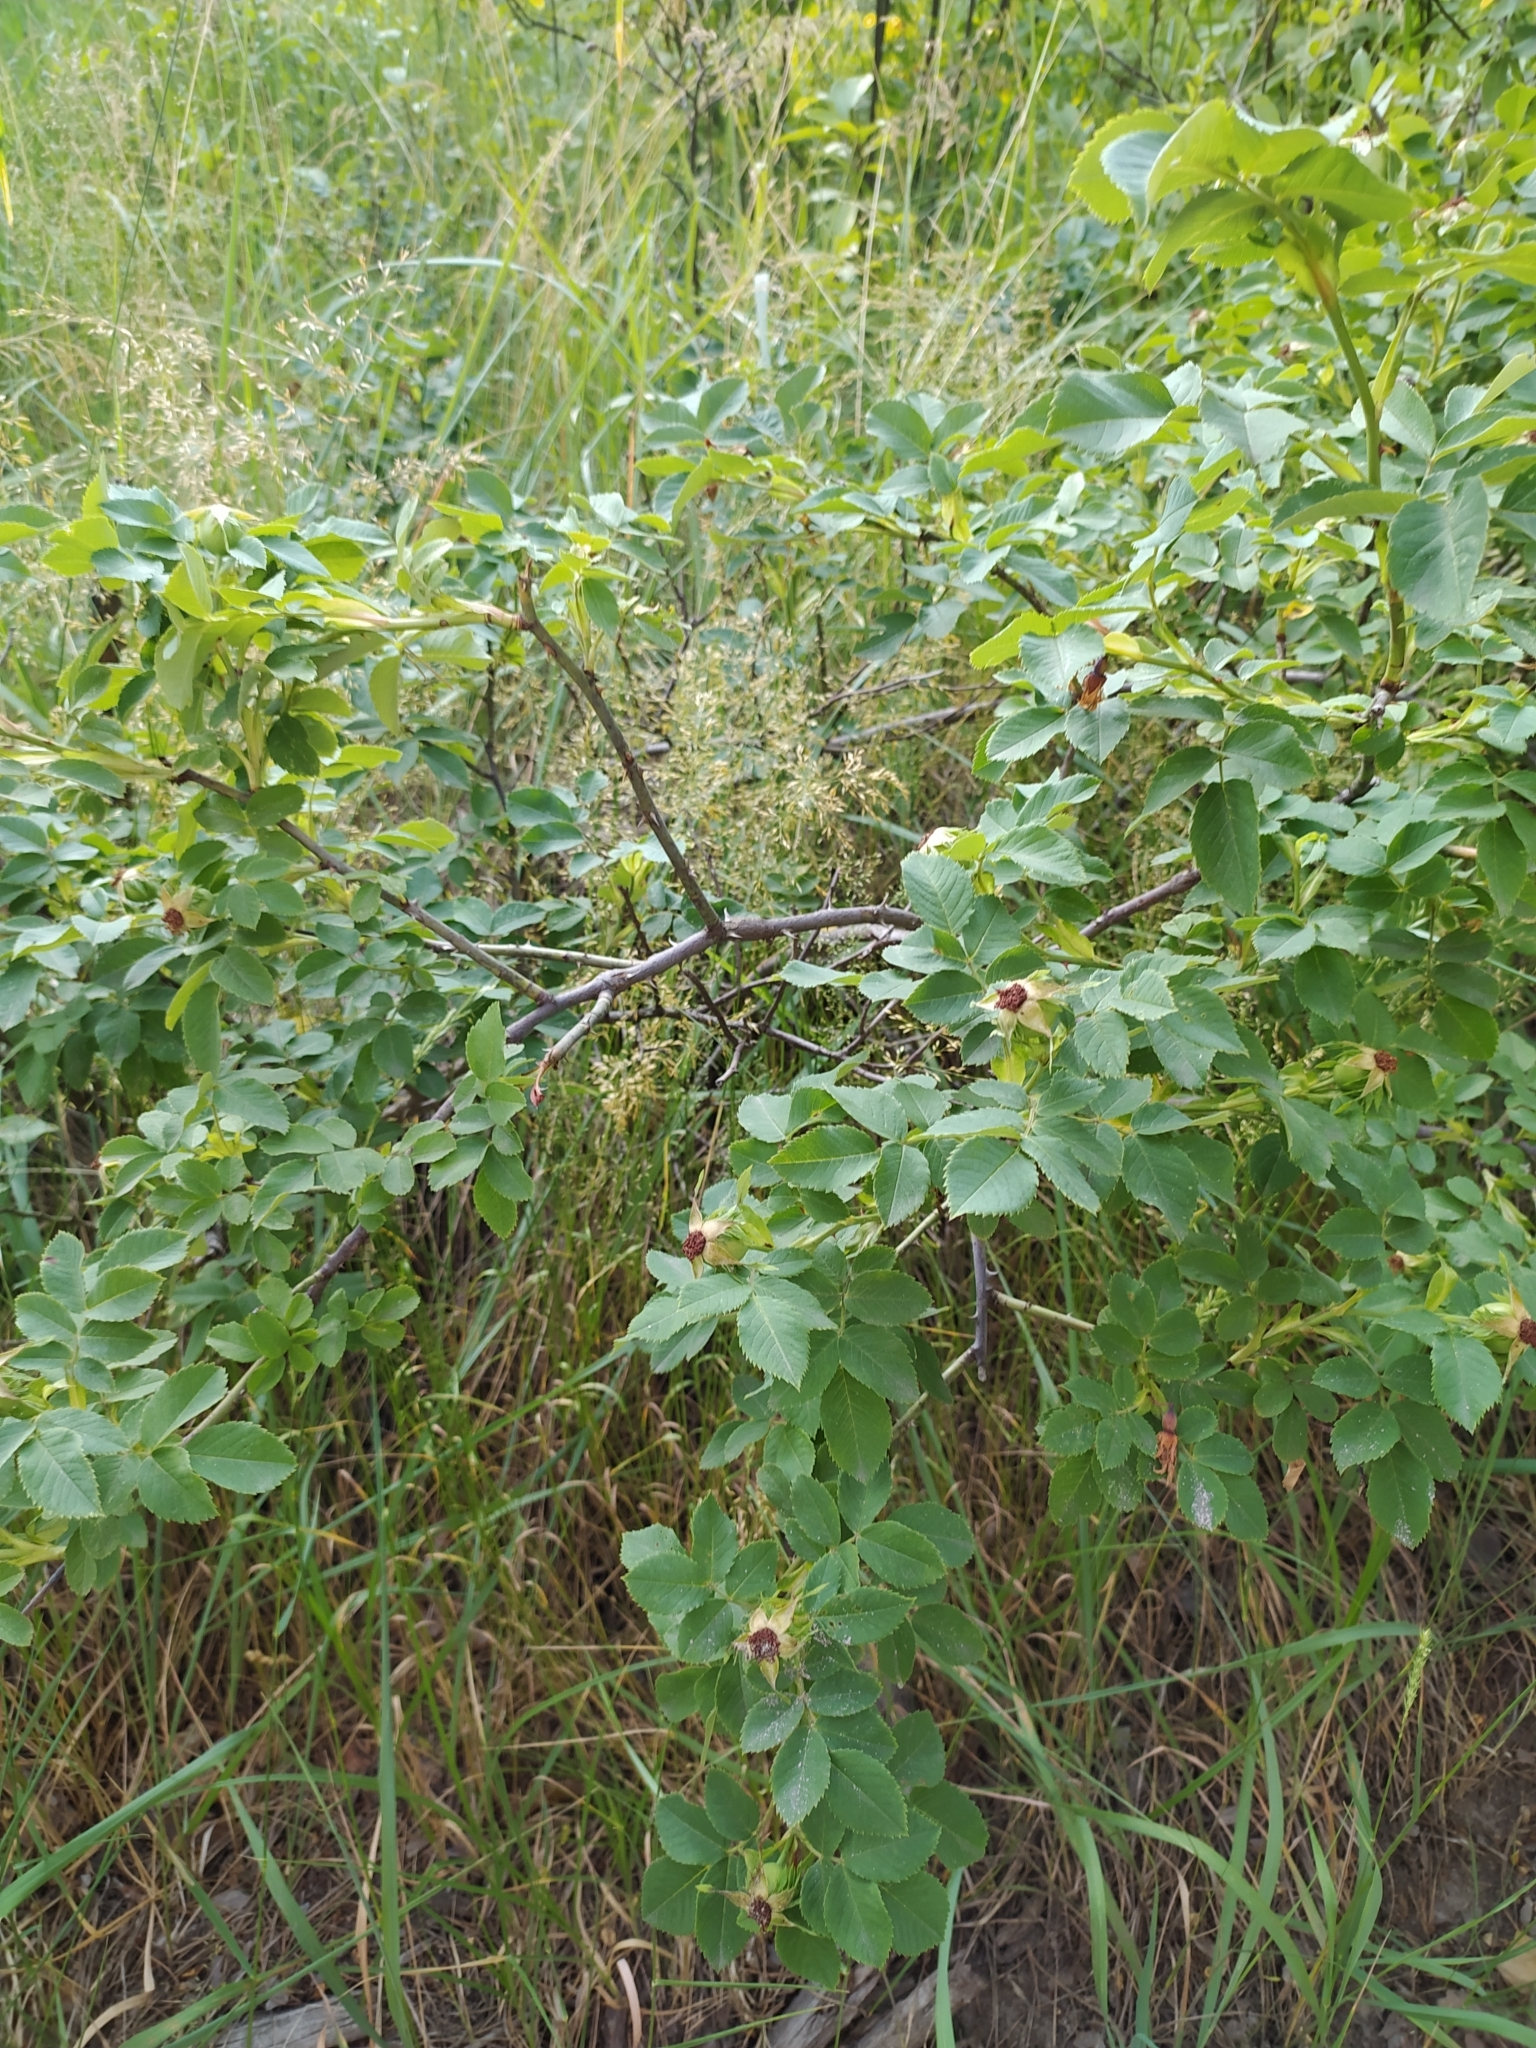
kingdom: Plantae
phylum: Tracheophyta
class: Magnoliopsida
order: Rosales
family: Rosaceae
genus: Rosa
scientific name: Rosa
